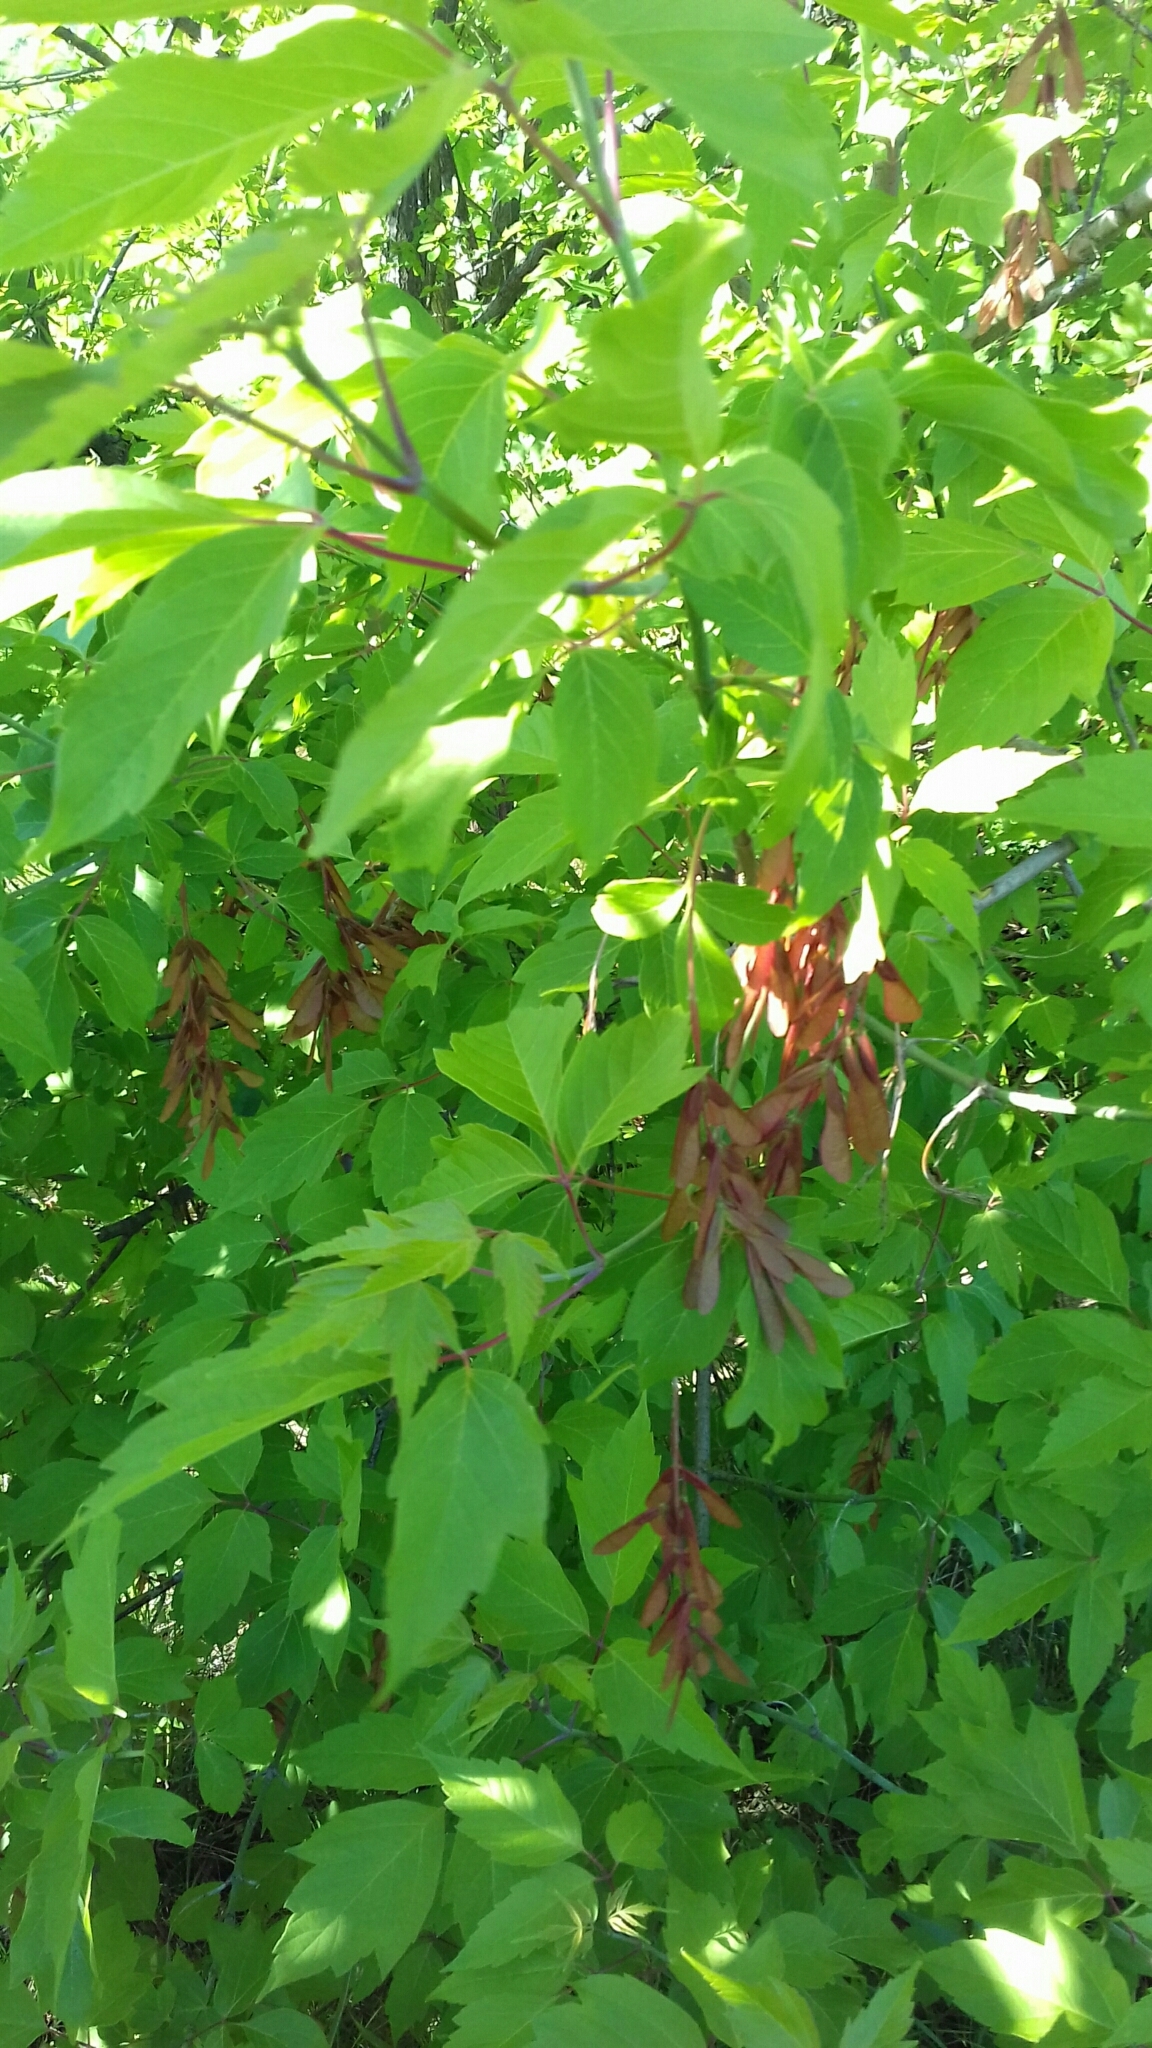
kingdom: Plantae
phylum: Tracheophyta
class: Magnoliopsida
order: Sapindales
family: Sapindaceae
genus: Acer
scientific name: Acer negundo
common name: Ashleaf maple
